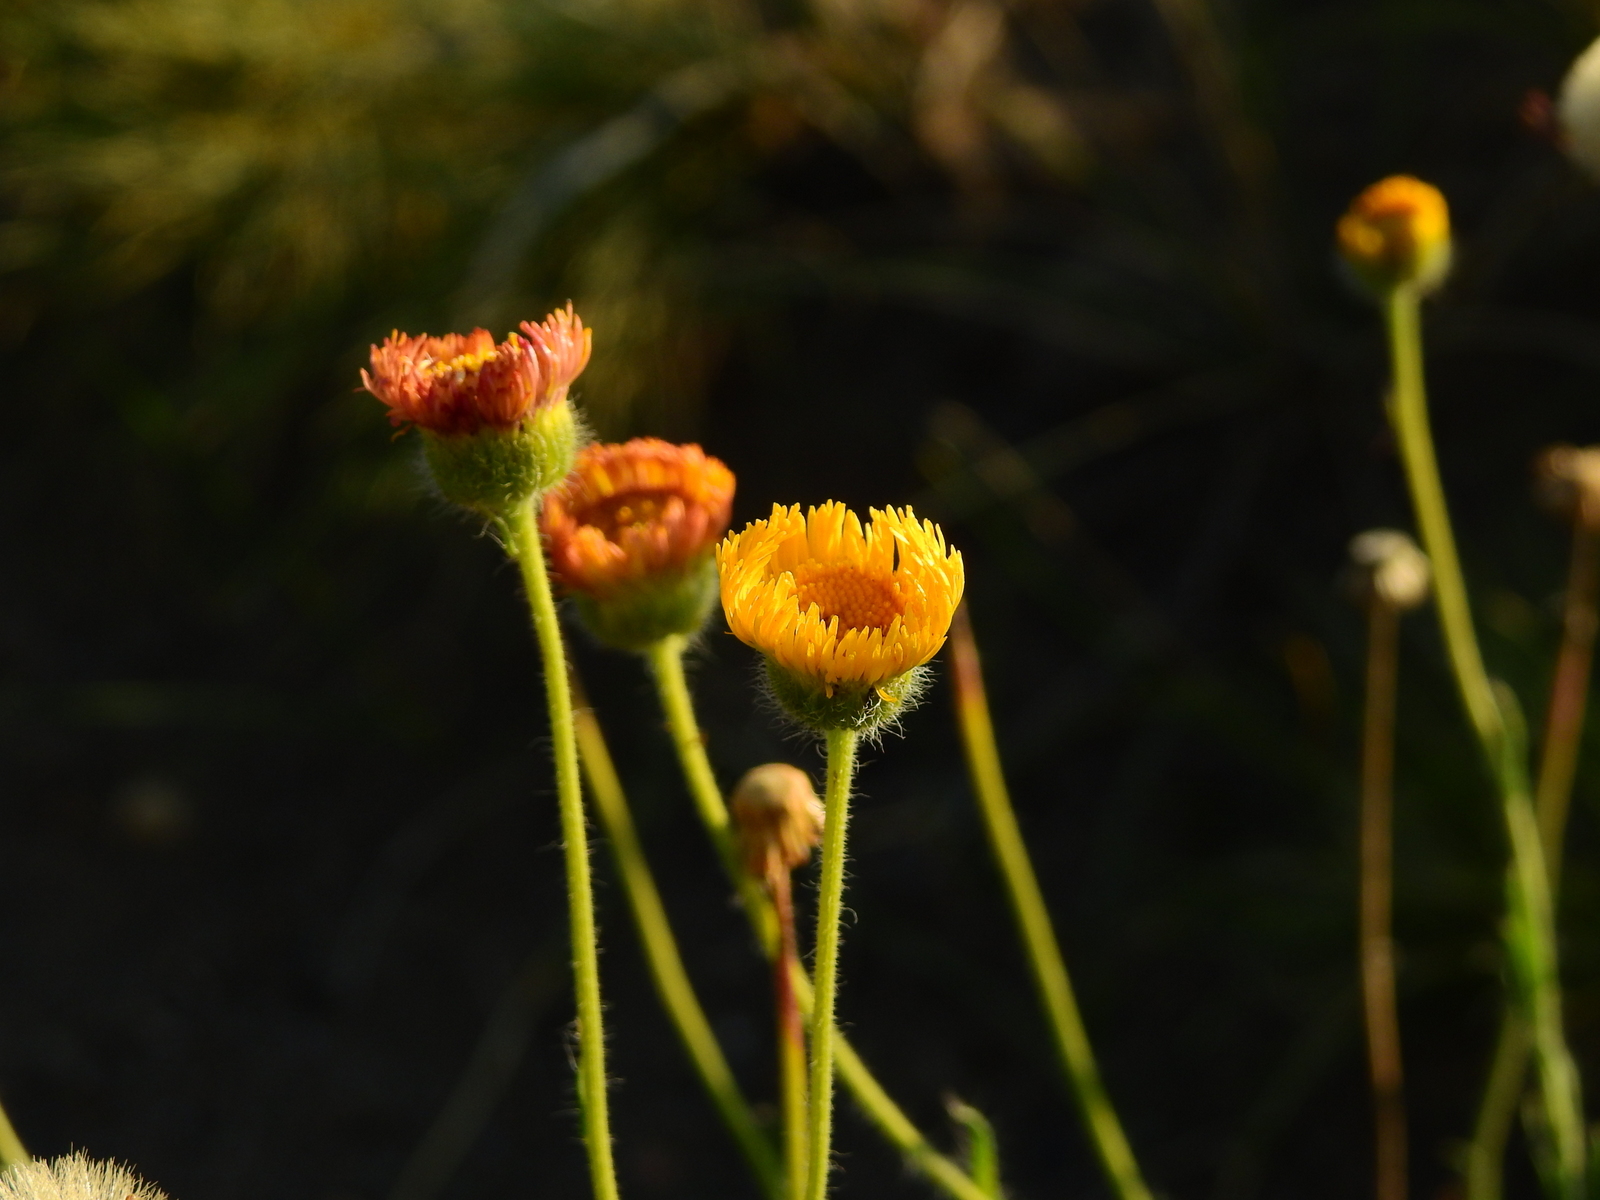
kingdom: Plantae
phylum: Tracheophyta
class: Magnoliopsida
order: Asterales
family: Asteraceae
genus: Hysterionica
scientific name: Hysterionica jasionoides
